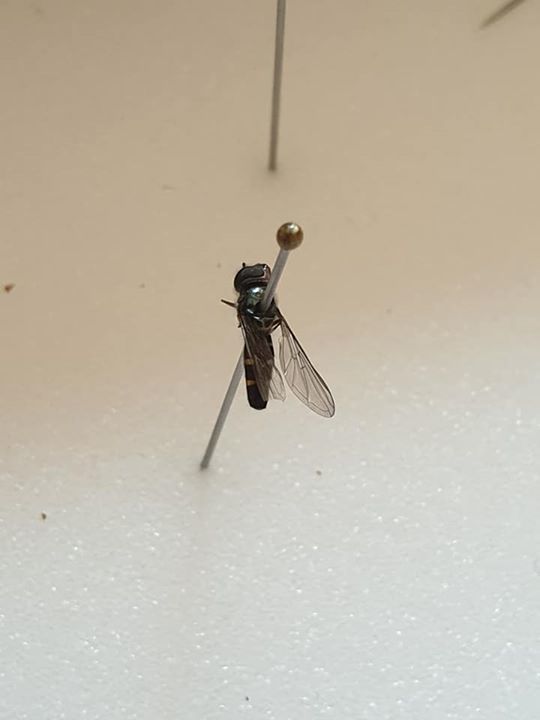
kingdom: Animalia
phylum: Arthropoda
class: Insecta
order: Diptera
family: Syrphidae
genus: Melangyna
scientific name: Melangyna novaezelandiae
